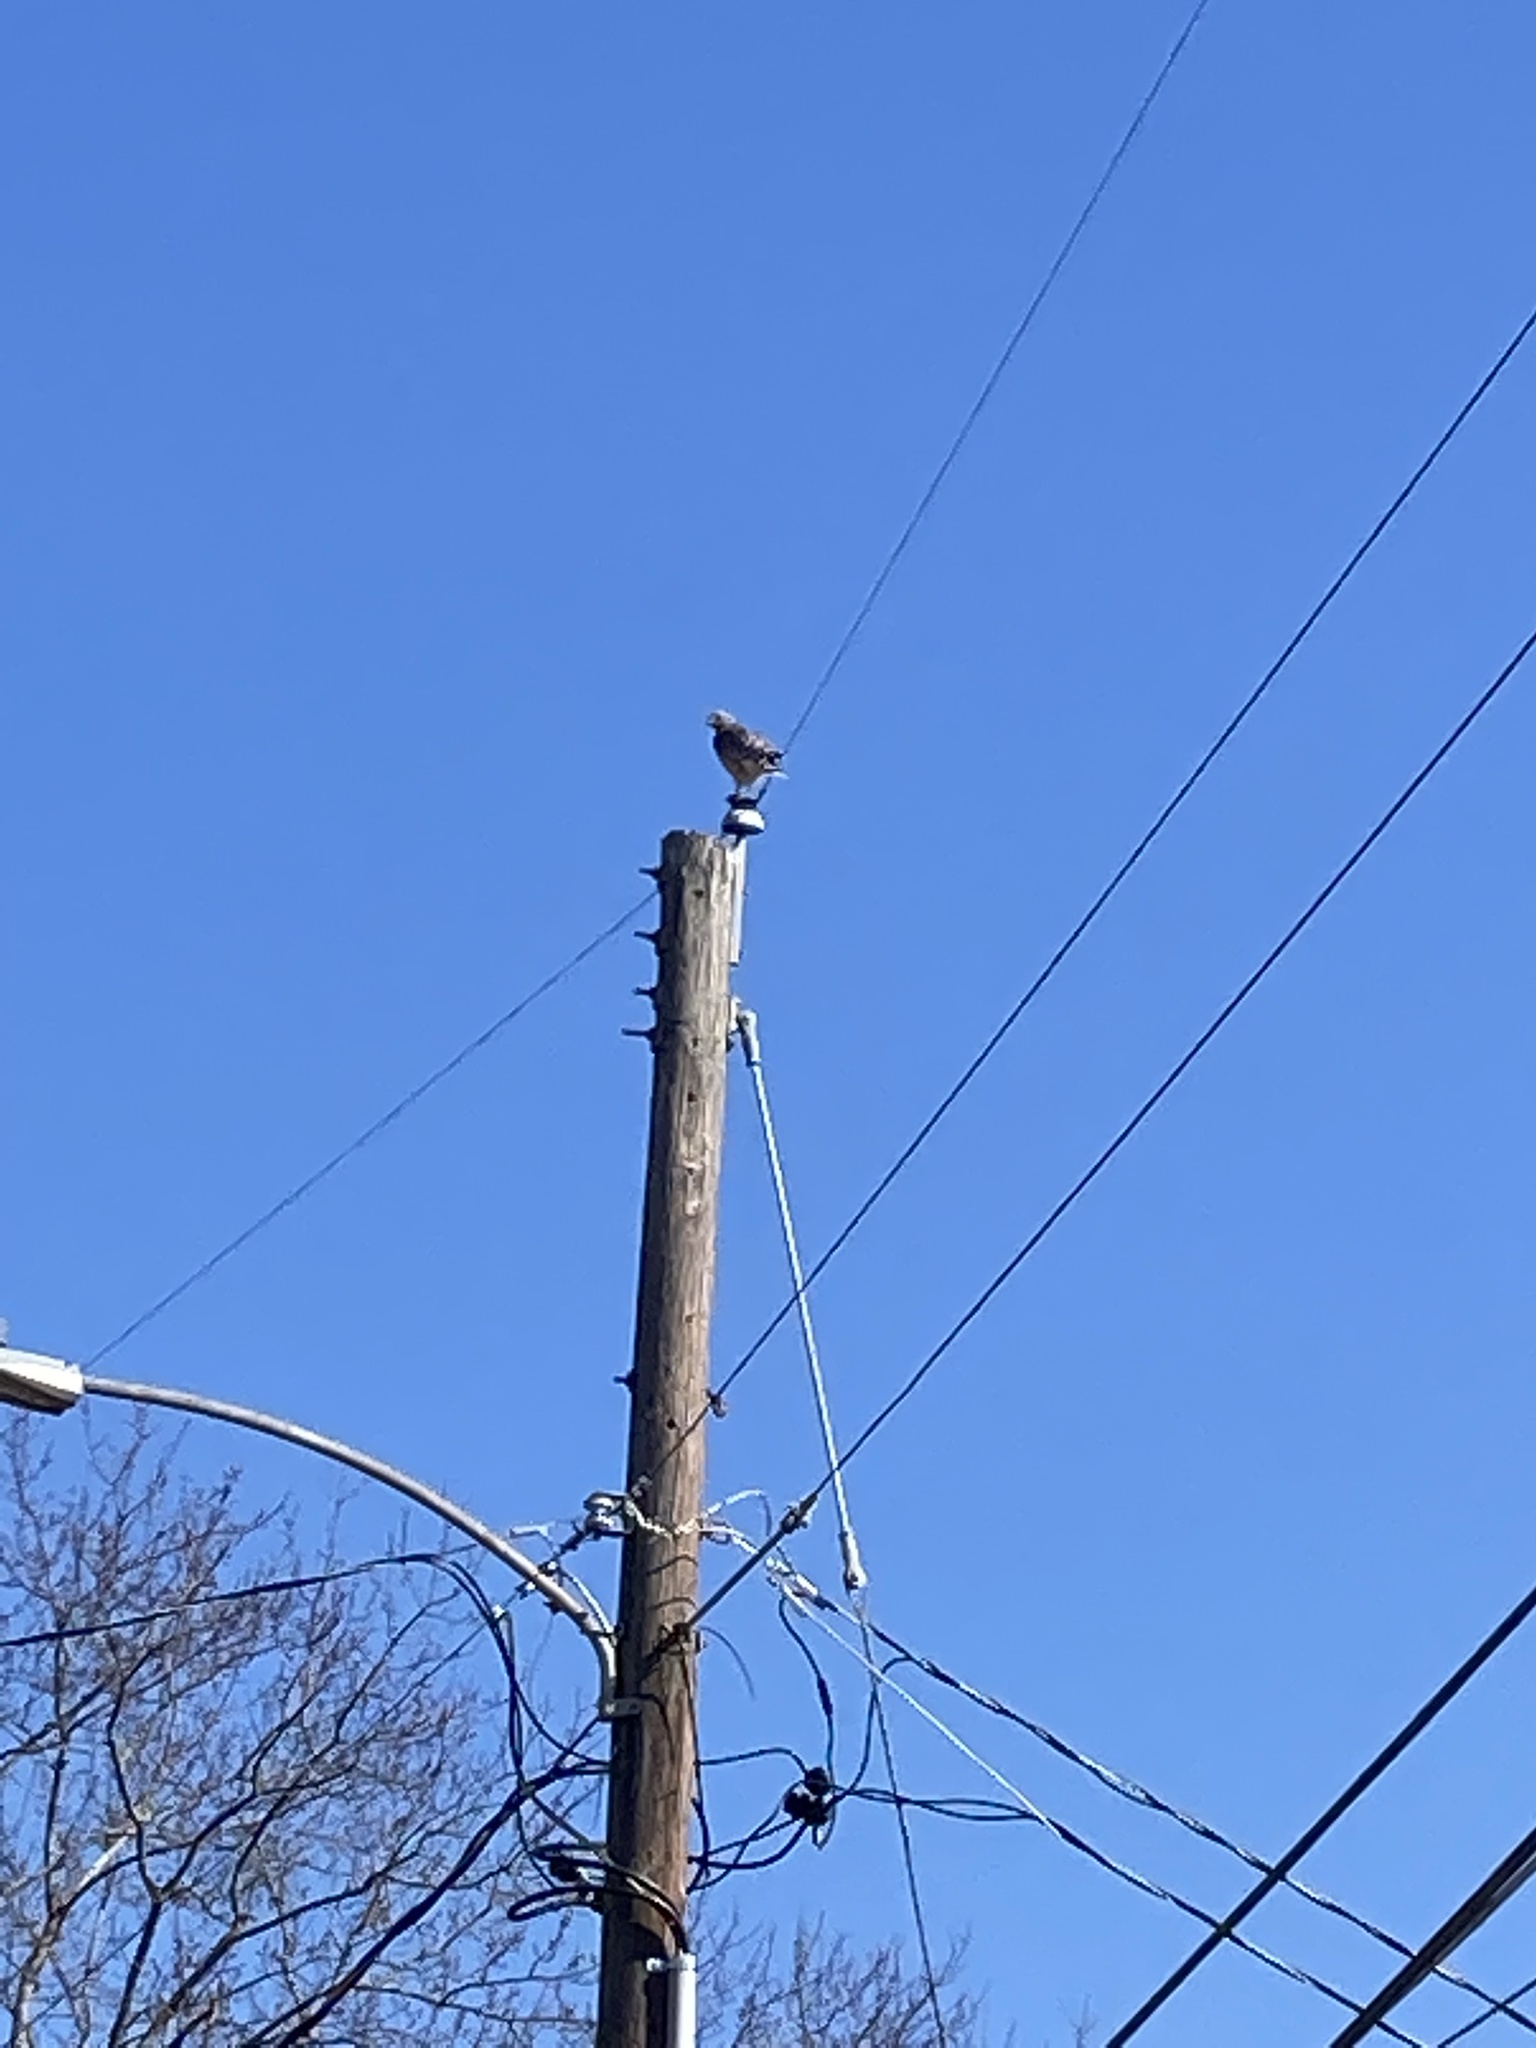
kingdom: Animalia
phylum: Chordata
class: Aves
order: Accipitriformes
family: Accipitridae
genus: Buteo
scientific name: Buteo lineatus
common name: Red-shouldered hawk
